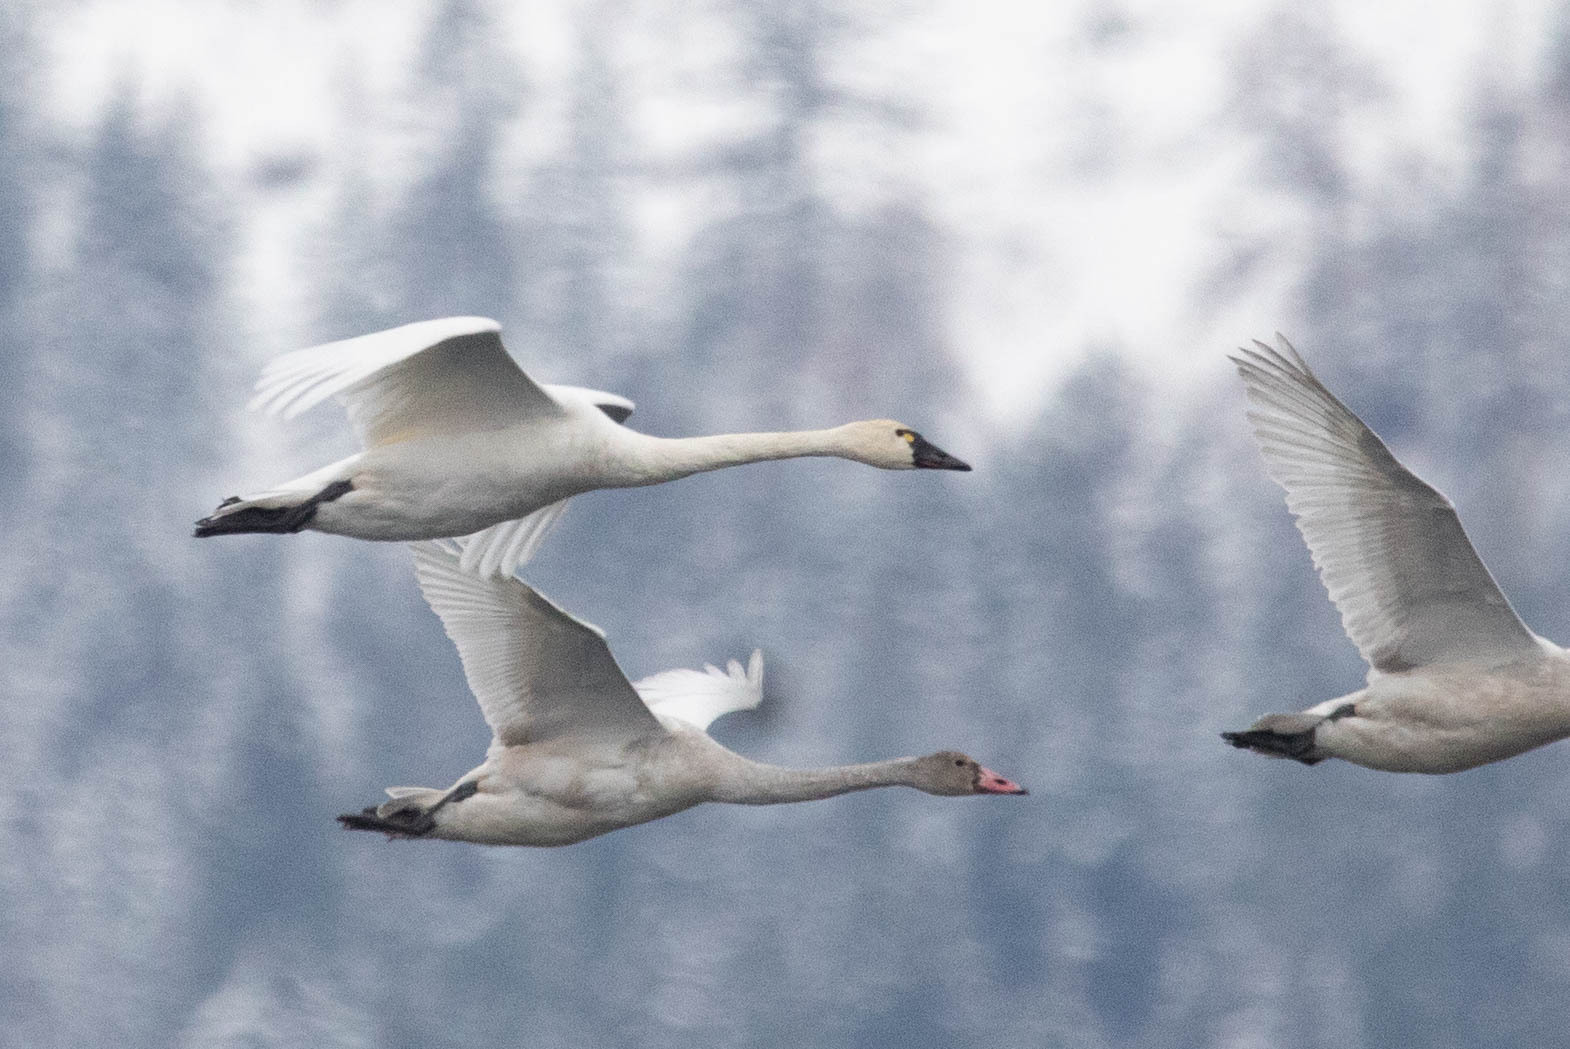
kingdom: Animalia
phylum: Chordata
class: Aves
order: Anseriformes
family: Anatidae
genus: Cygnus
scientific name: Cygnus columbianus
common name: Tundra swan
